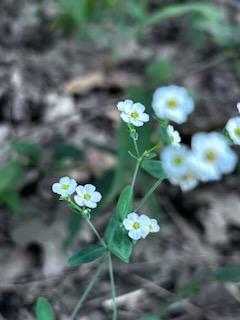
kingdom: Plantae
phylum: Tracheophyta
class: Magnoliopsida
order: Malpighiales
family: Euphorbiaceae
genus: Euphorbia
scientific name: Euphorbia corollata
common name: Flowering spurge
